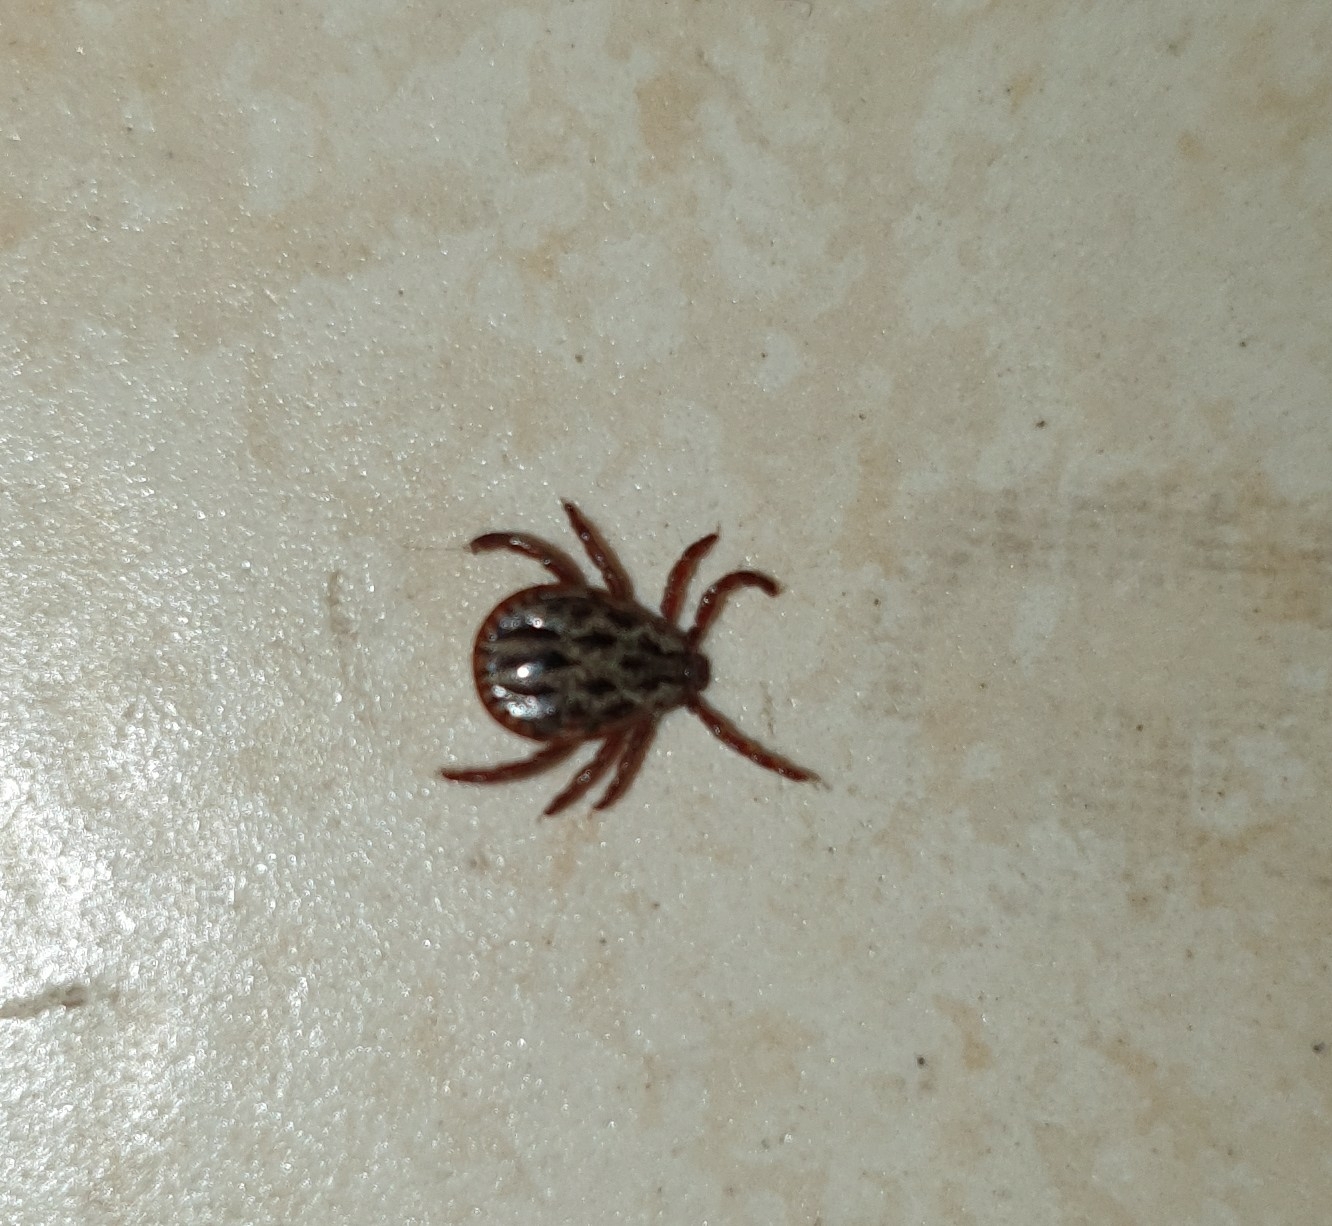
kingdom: Animalia
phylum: Arthropoda
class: Arachnida
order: Ixodida
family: Ixodidae
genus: Dermacentor
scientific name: Dermacentor reticulatus
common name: Ornate cow tick
